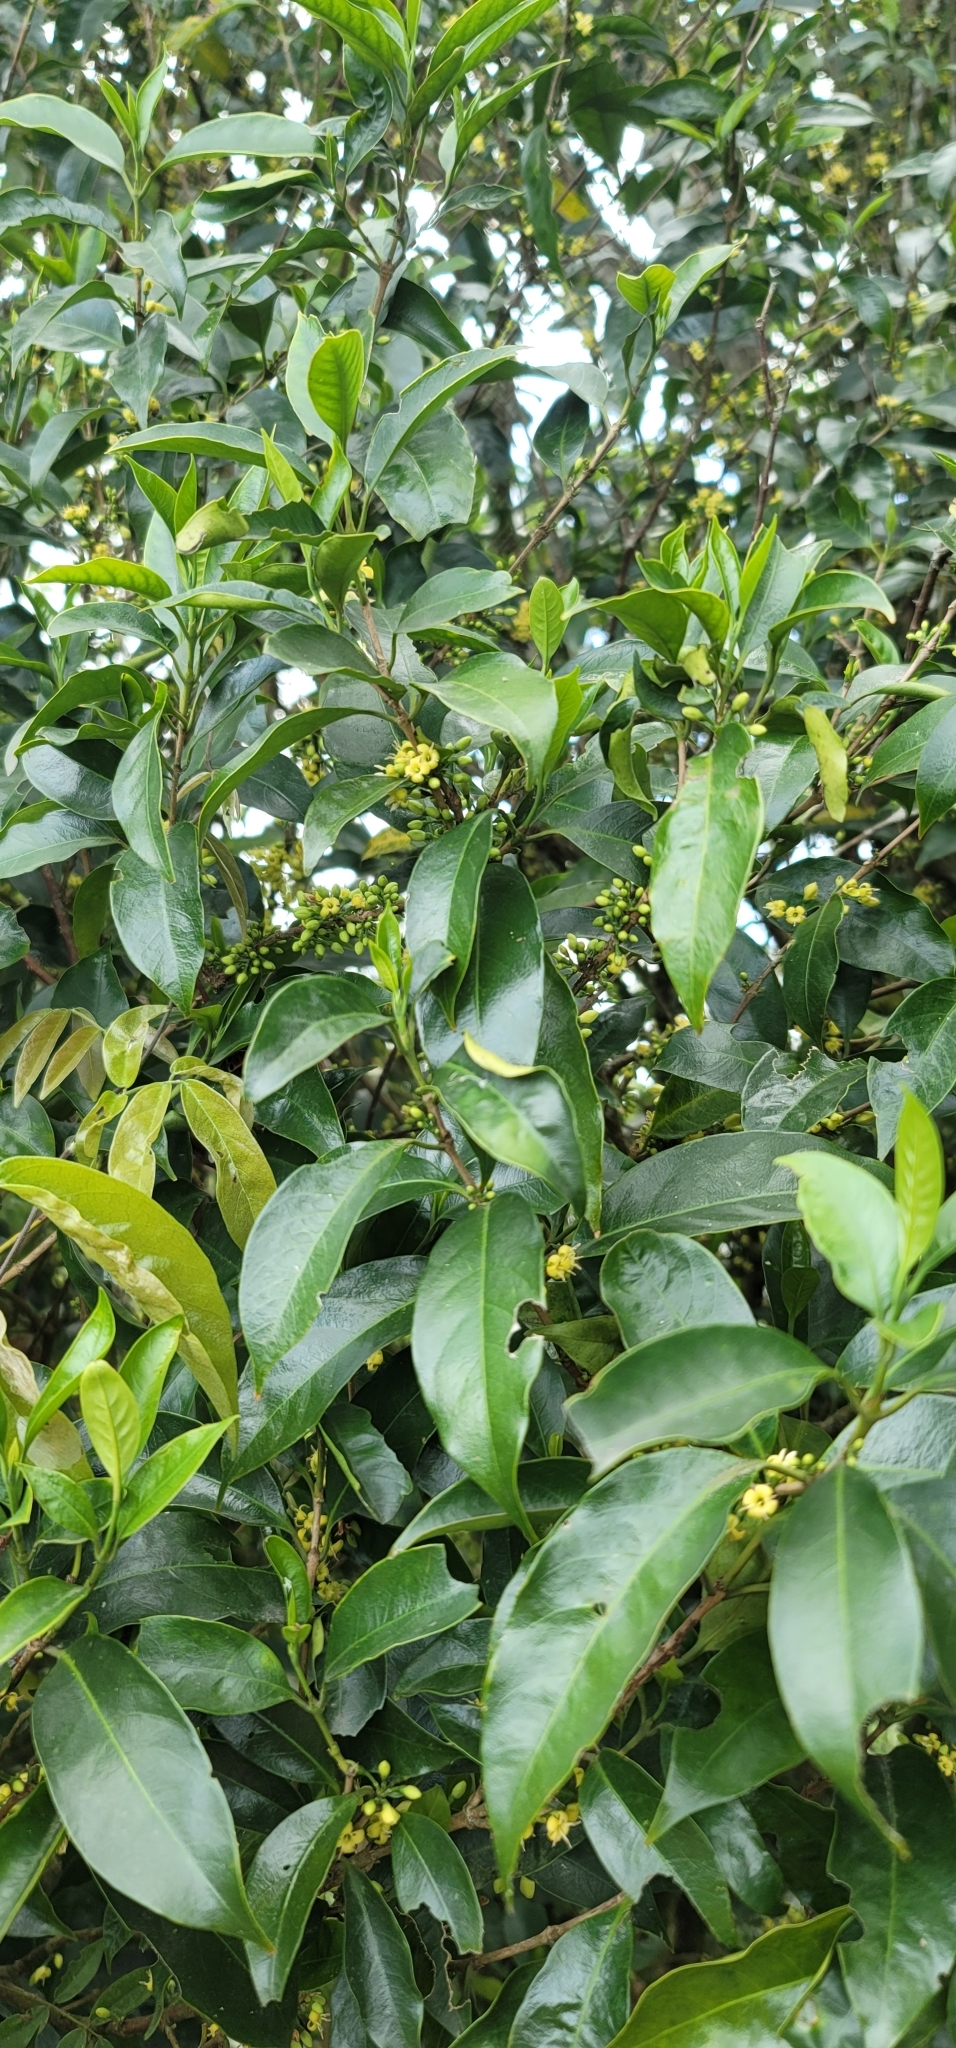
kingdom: Plantae
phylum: Tracheophyta
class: Magnoliopsida
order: Gentianales
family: Rubiaceae
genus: Diplospora
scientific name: Diplospora dubia
